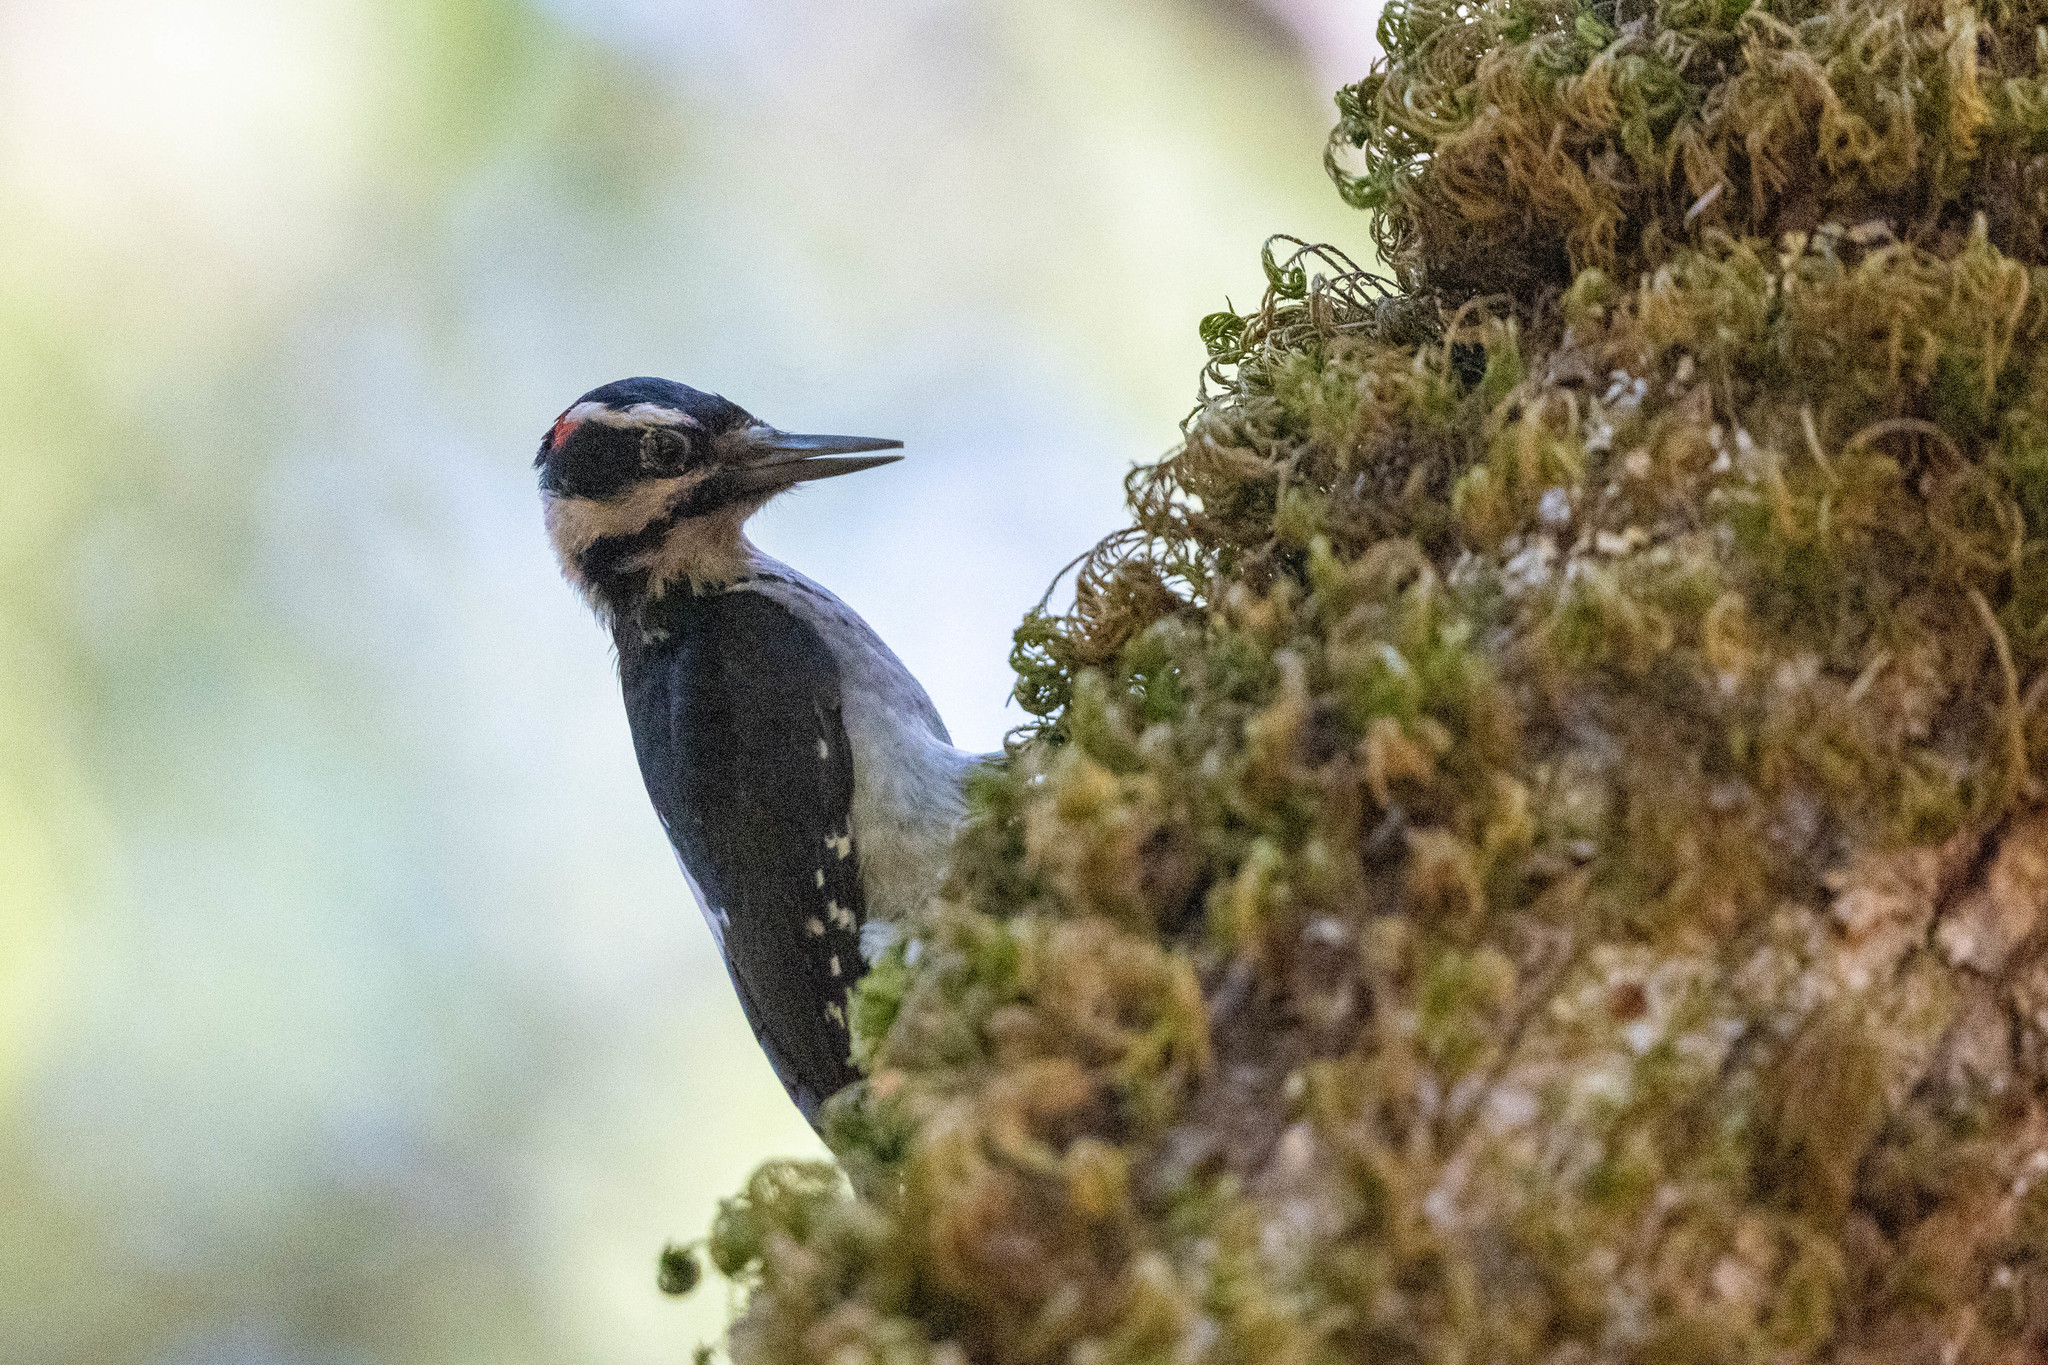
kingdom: Animalia
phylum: Chordata
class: Aves
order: Piciformes
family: Picidae
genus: Leuconotopicus
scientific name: Leuconotopicus villosus
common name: Hairy woodpecker
